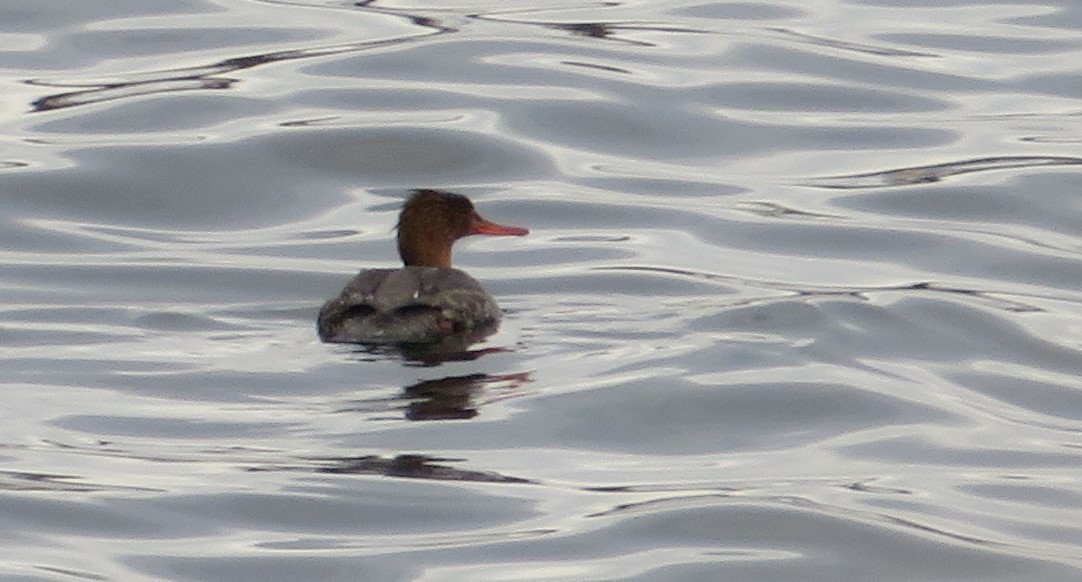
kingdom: Animalia
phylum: Chordata
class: Aves
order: Anseriformes
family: Anatidae
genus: Mergus
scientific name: Mergus serrator
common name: Red-breasted merganser
